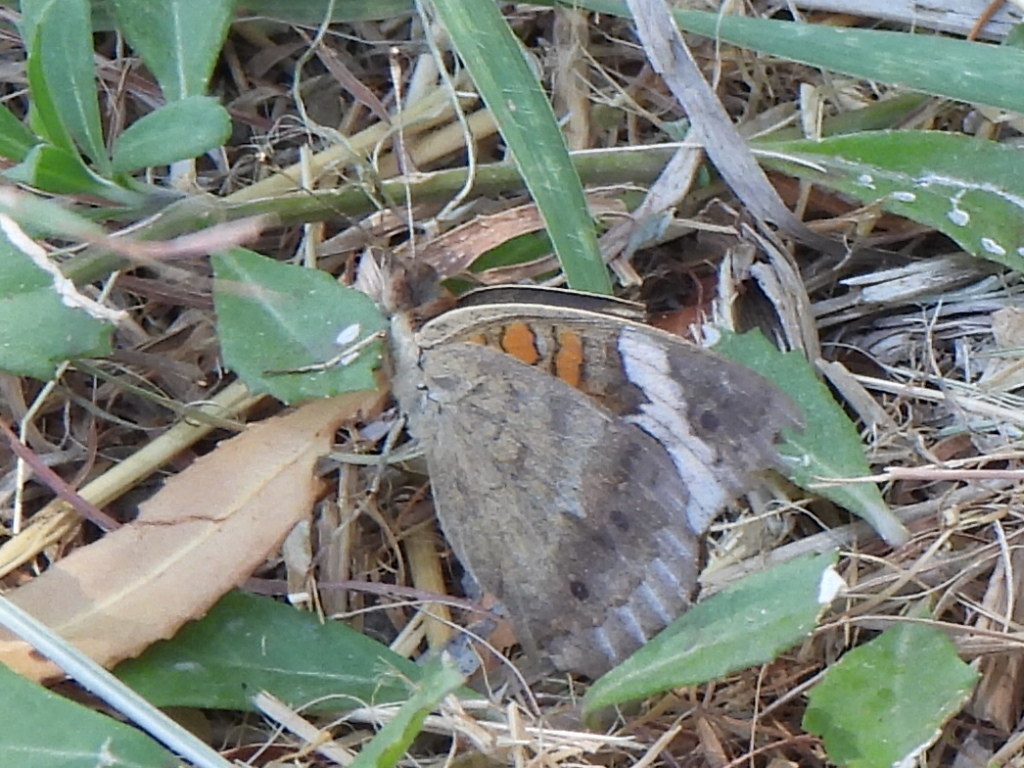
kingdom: Animalia
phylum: Arthropoda
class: Insecta
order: Lepidoptera
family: Nymphalidae
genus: Junonia
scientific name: Junonia coenia
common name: Common buckeye
